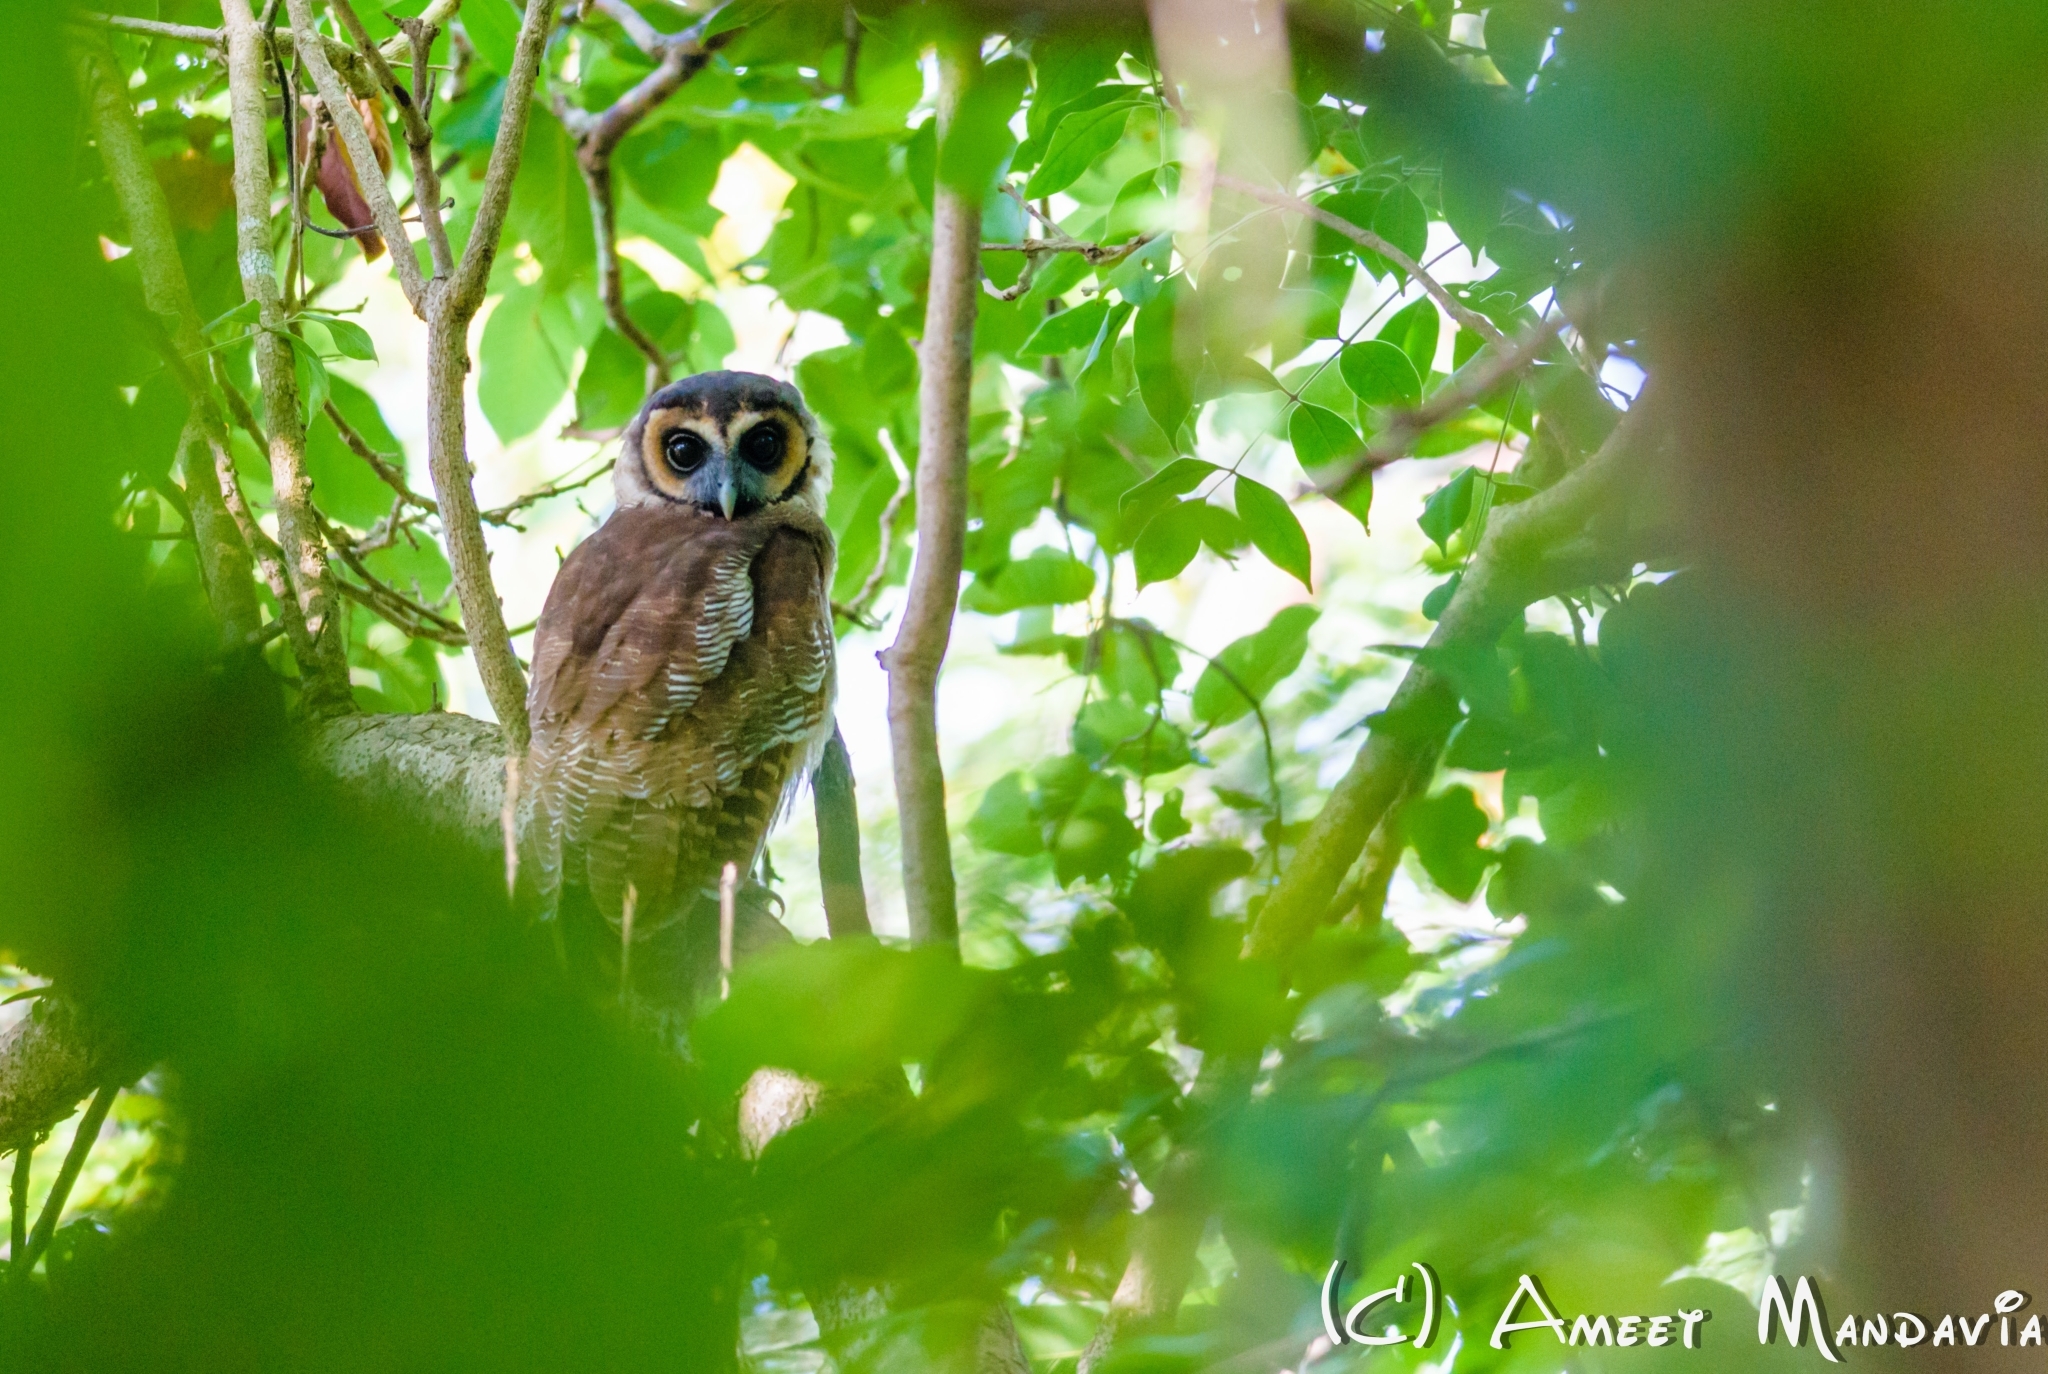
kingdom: Animalia
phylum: Chordata
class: Aves
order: Strigiformes
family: Strigidae
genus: Strix
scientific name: Strix leptogrammica
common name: Brown wood owl
